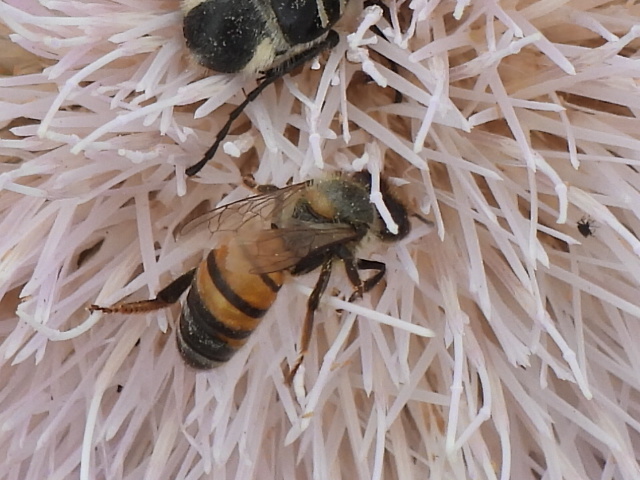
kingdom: Animalia
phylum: Arthropoda
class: Insecta
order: Hymenoptera
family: Apidae
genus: Apis
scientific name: Apis mellifera
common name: Honey bee
